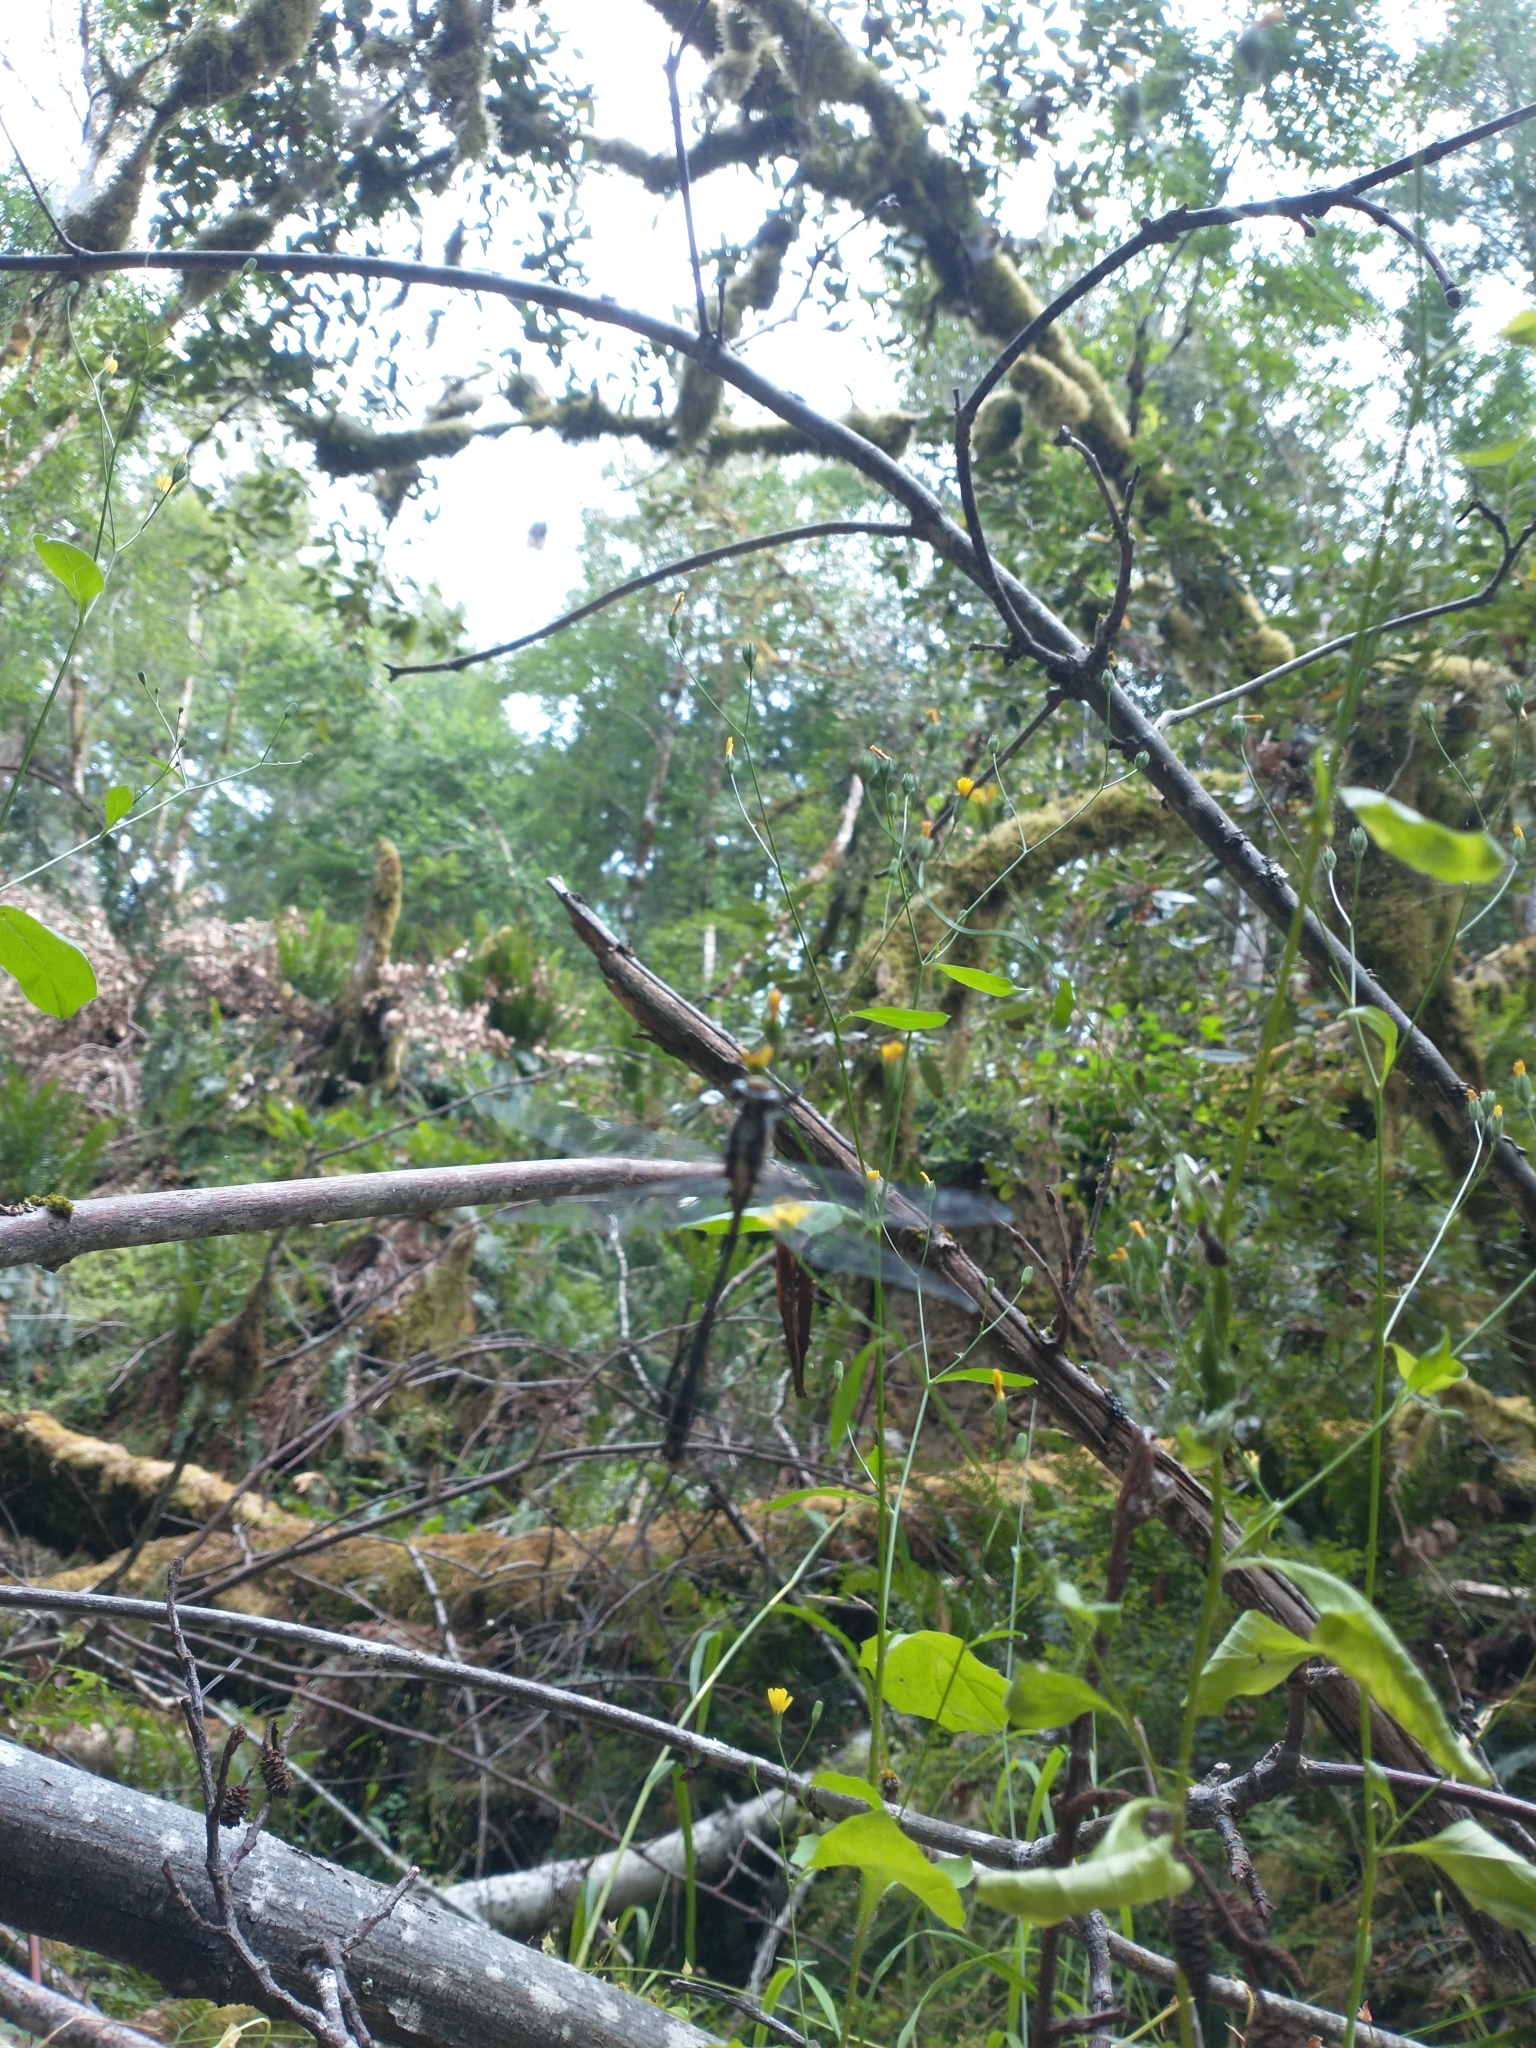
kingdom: Plantae
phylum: Tracheophyta
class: Magnoliopsida
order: Asterales
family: Asteraceae
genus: Lapsana
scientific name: Lapsana communis
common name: Nipplewort
